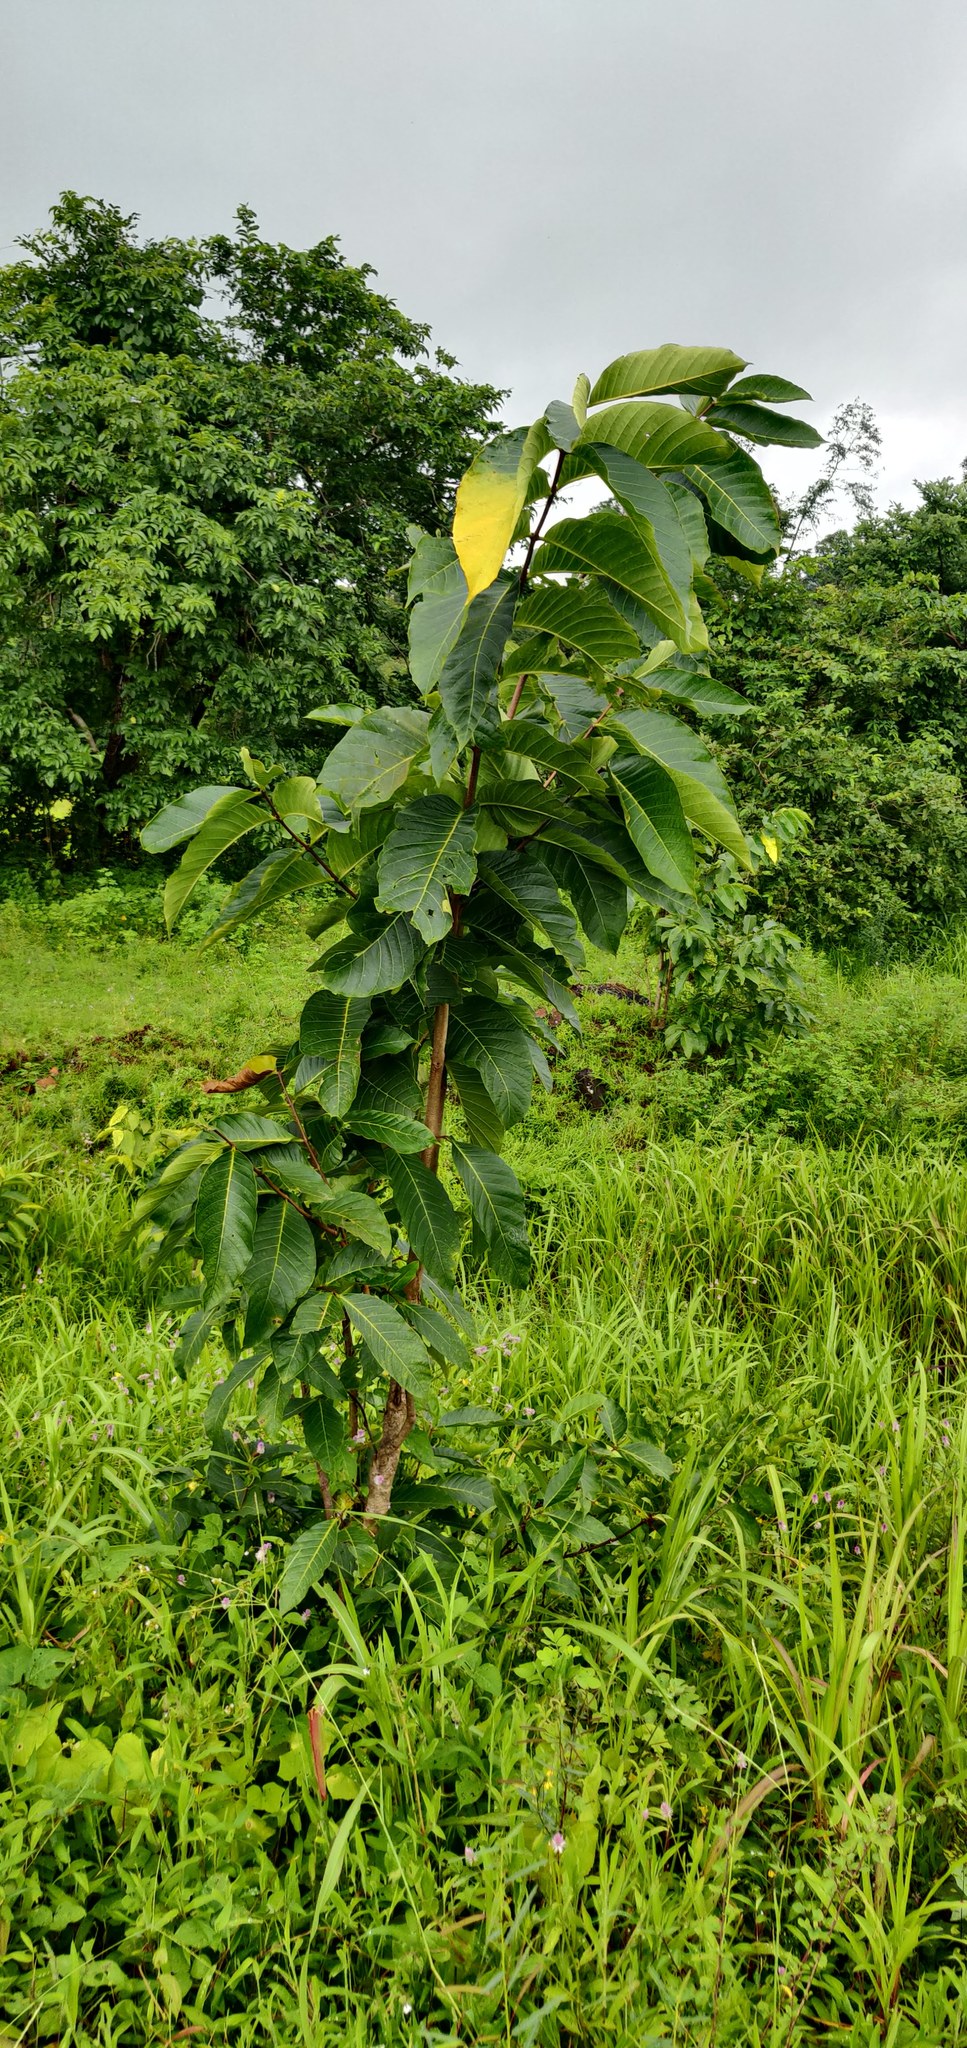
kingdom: Plantae
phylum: Tracheophyta
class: Magnoliopsida
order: Myrtales
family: Lythraceae
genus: Lagerstroemia
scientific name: Lagerstroemia speciosa
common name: Queen's crape-myrtle
